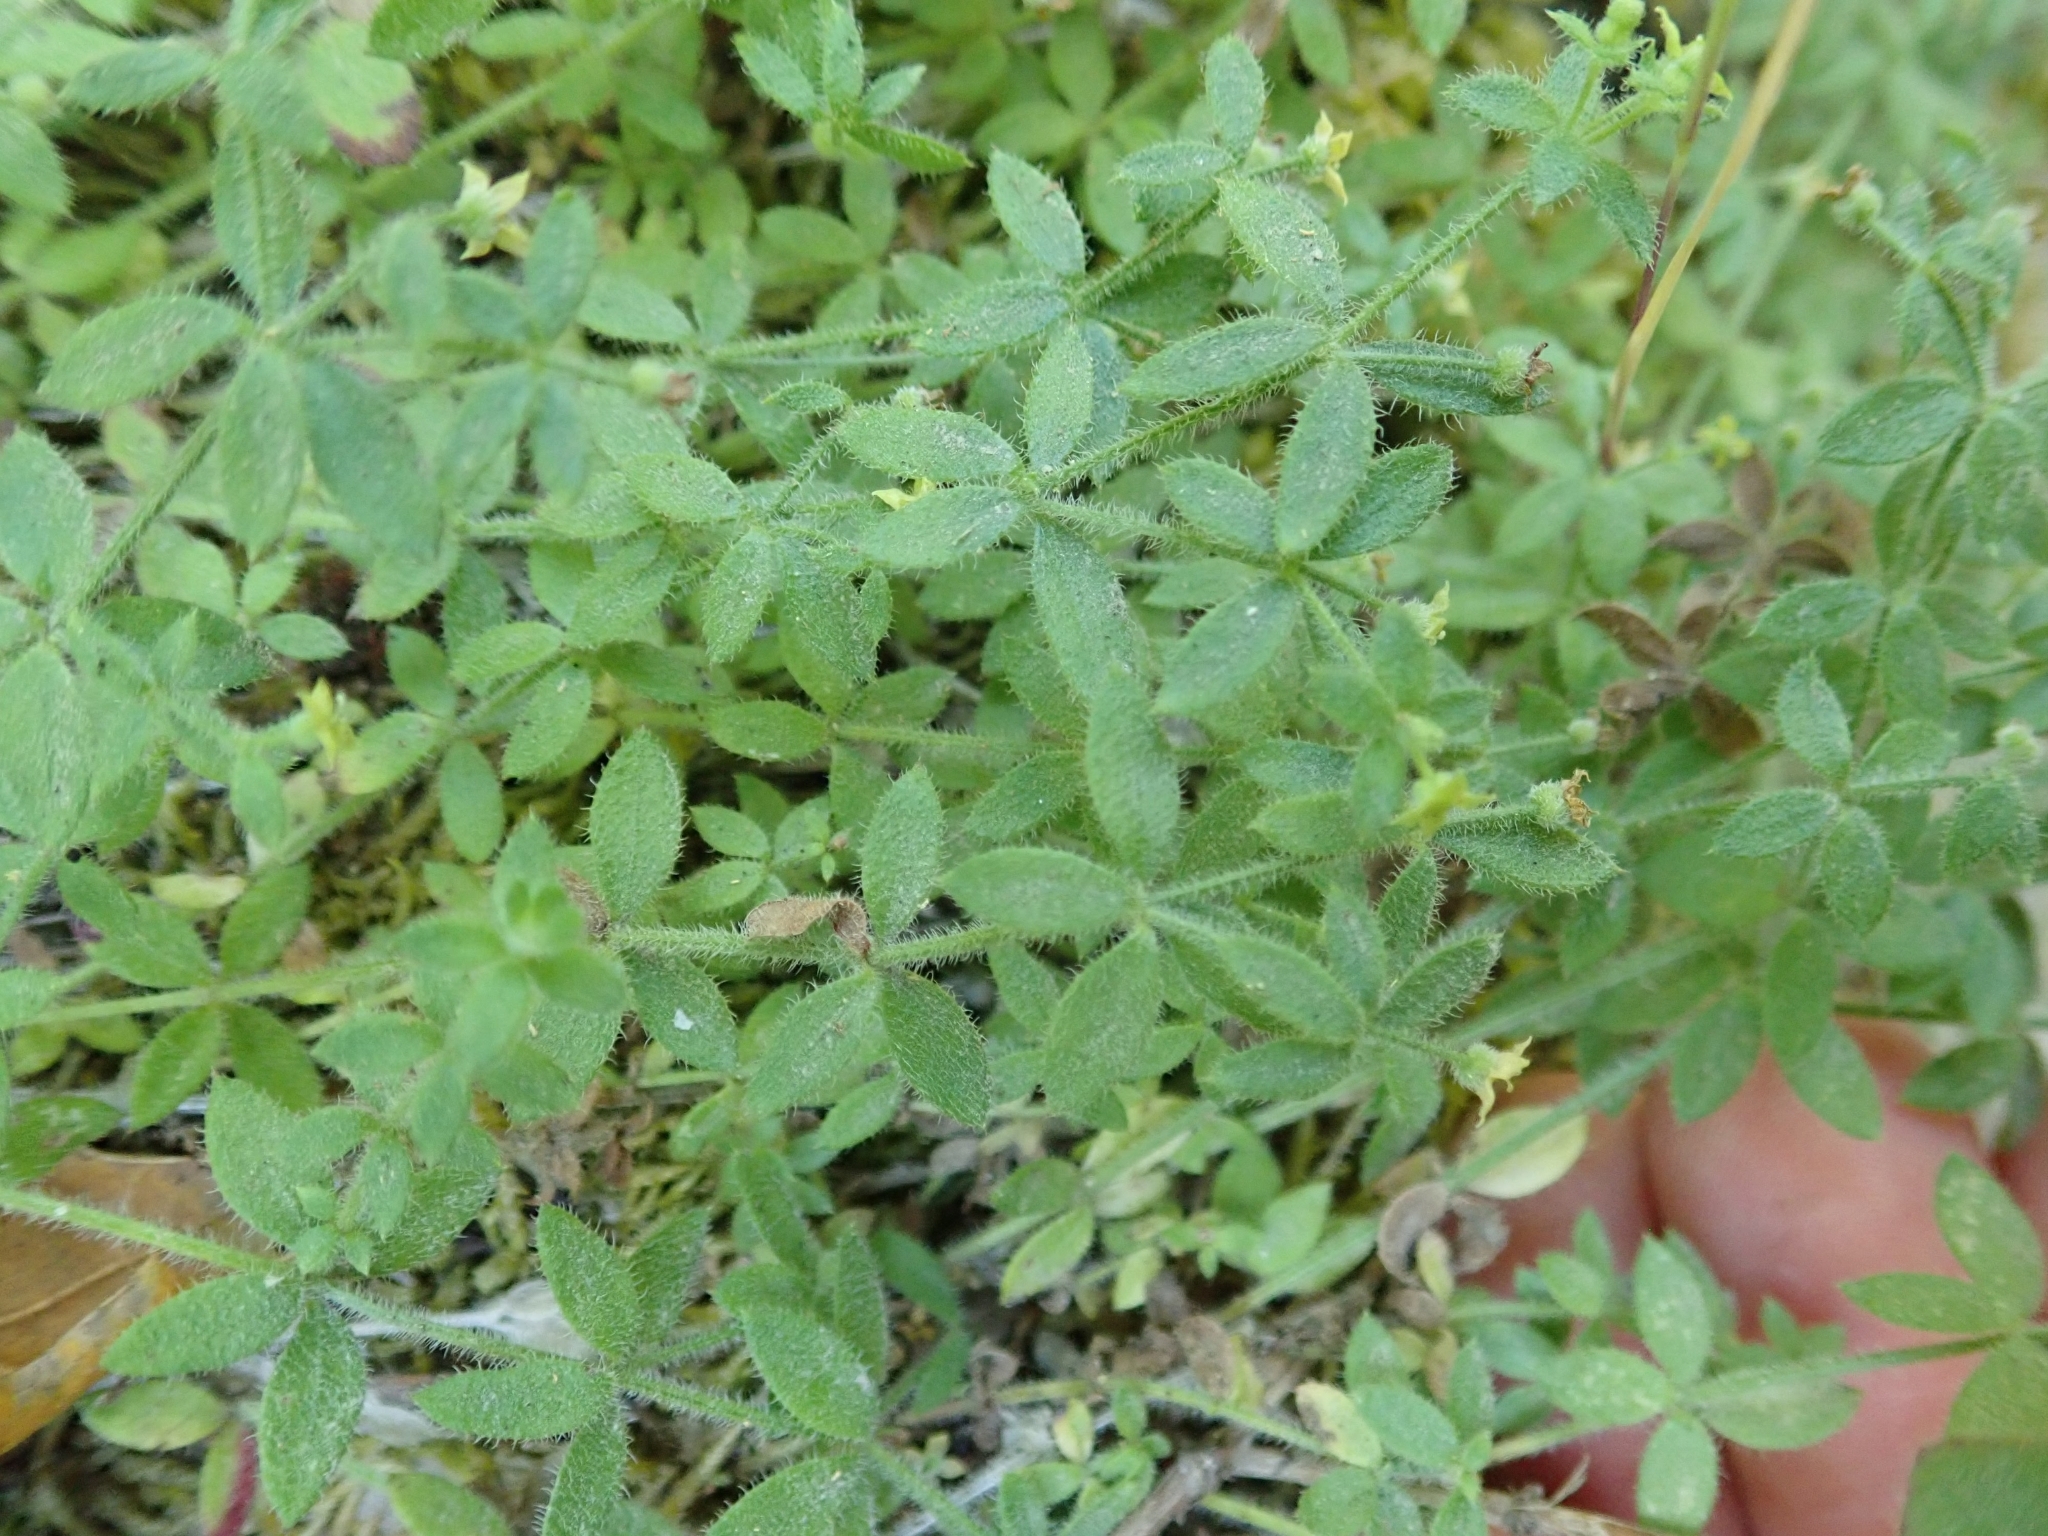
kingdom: Plantae
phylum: Tracheophyta
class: Magnoliopsida
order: Gentianales
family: Rubiaceae
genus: Galium
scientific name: Galium californicum
